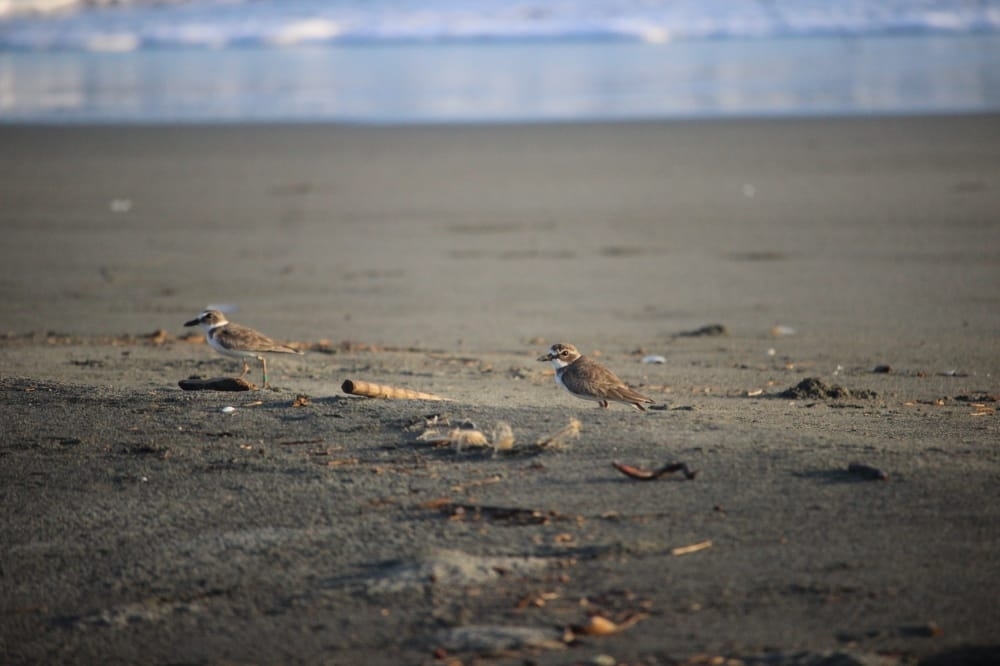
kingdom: Animalia
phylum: Chordata
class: Aves
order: Charadriiformes
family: Charadriidae
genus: Anarhynchus
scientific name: Anarhynchus
